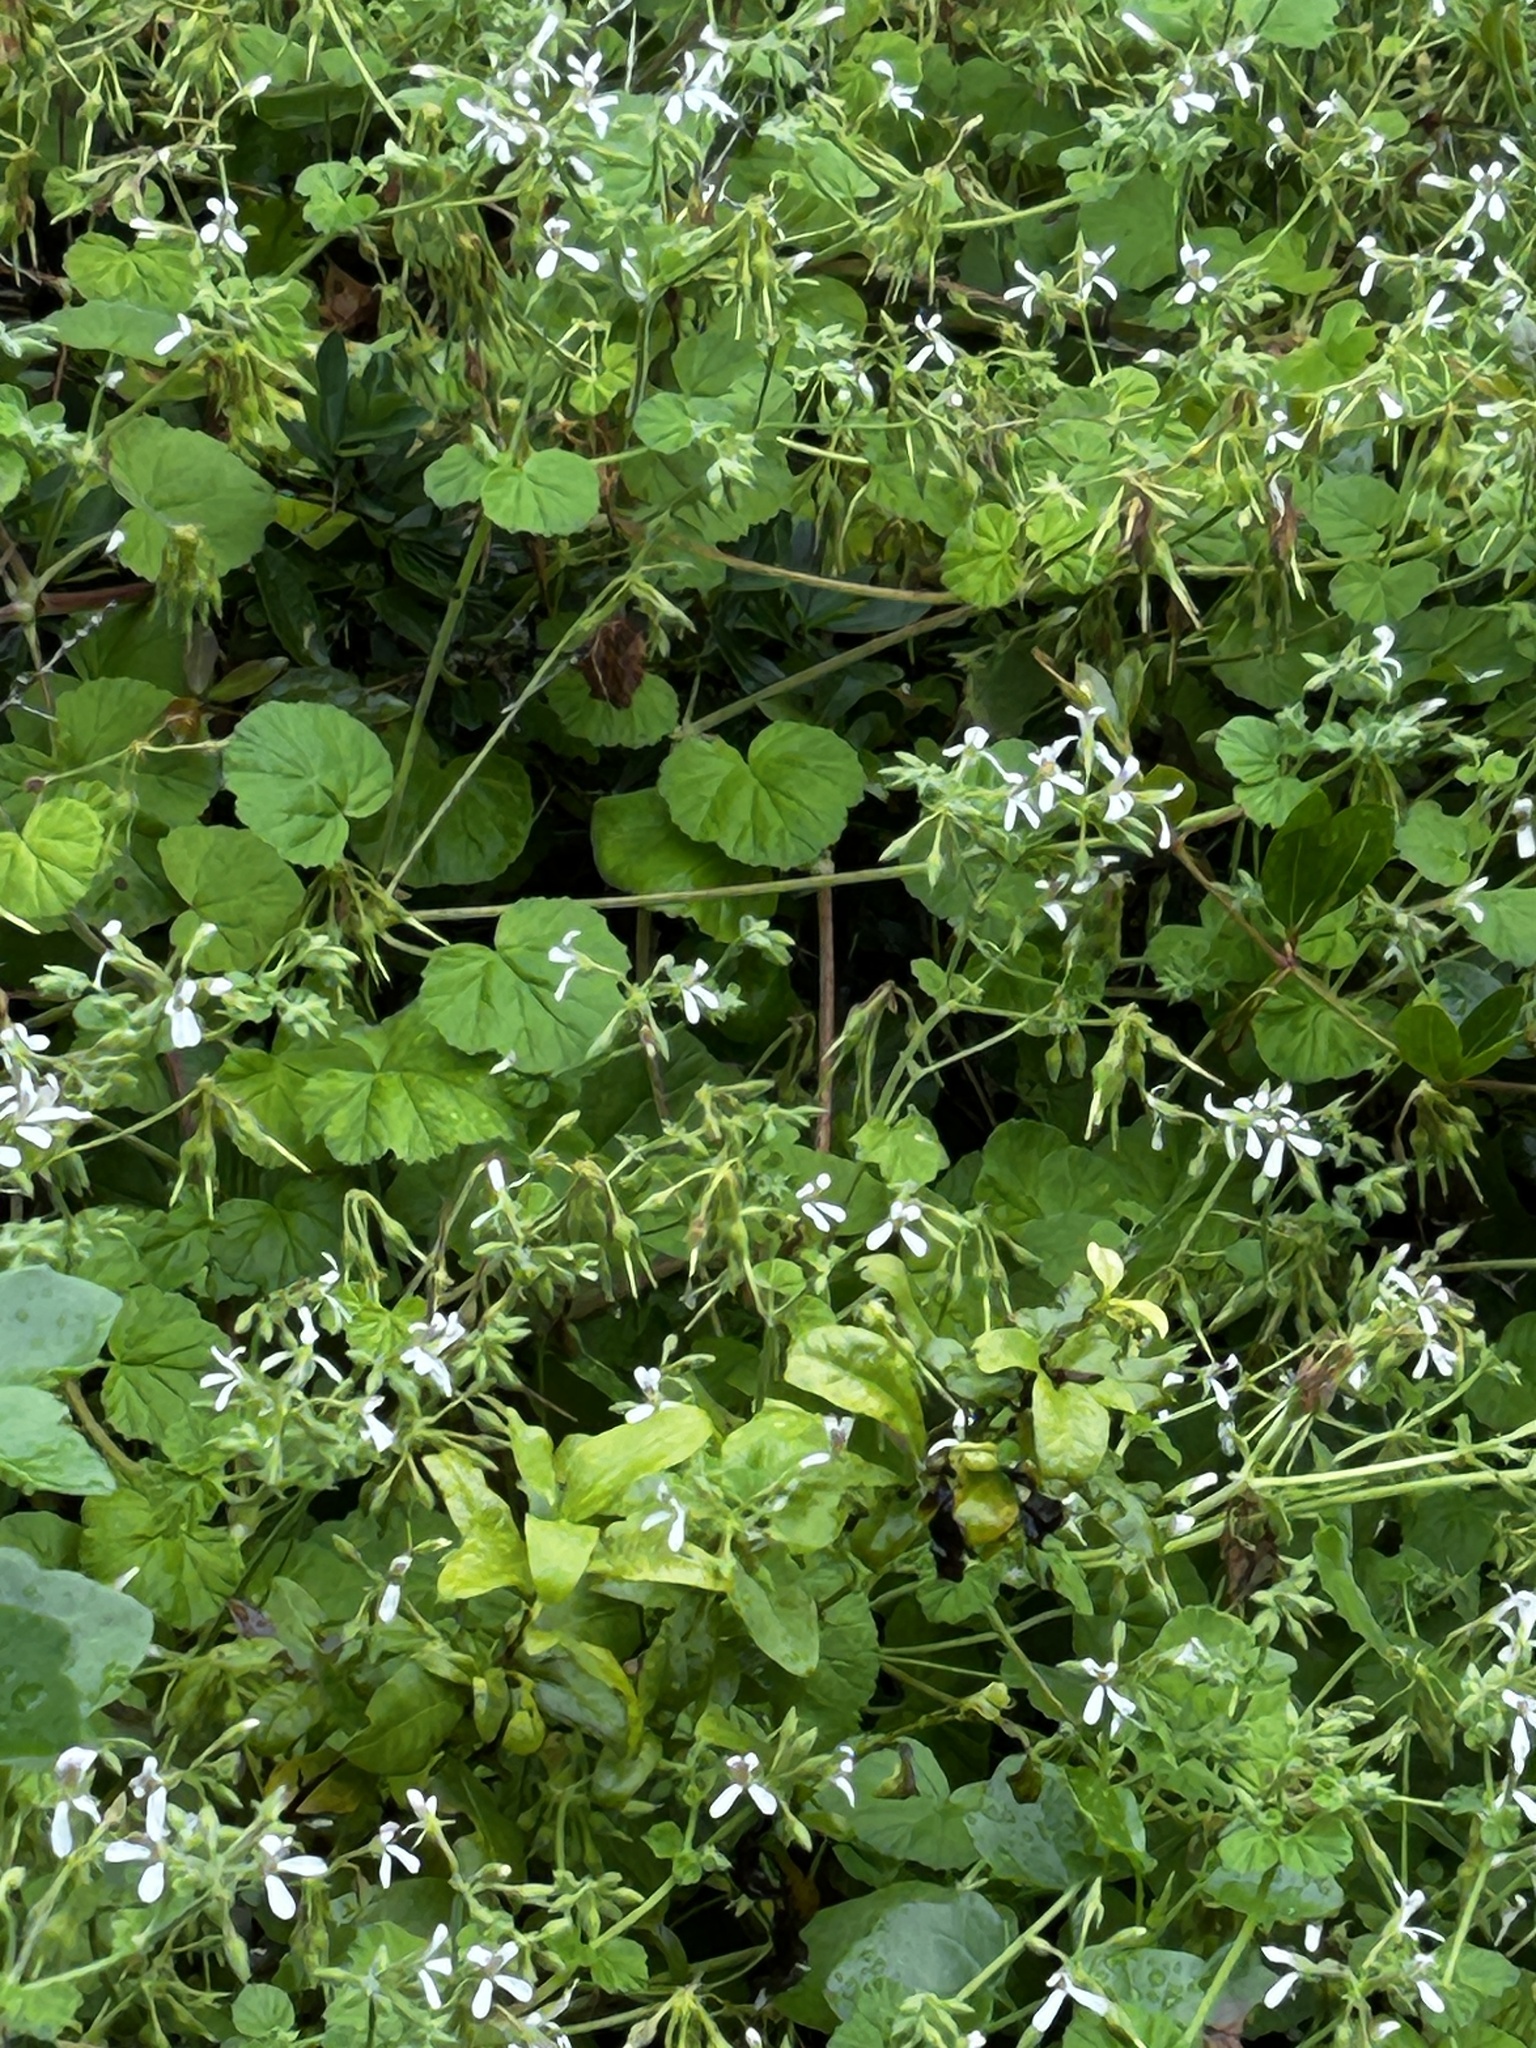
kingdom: Plantae
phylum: Tracheophyta
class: Magnoliopsida
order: Geraniales
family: Geraniaceae
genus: Pelargonium
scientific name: Pelargonium odoratissimum
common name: Apple geranium
